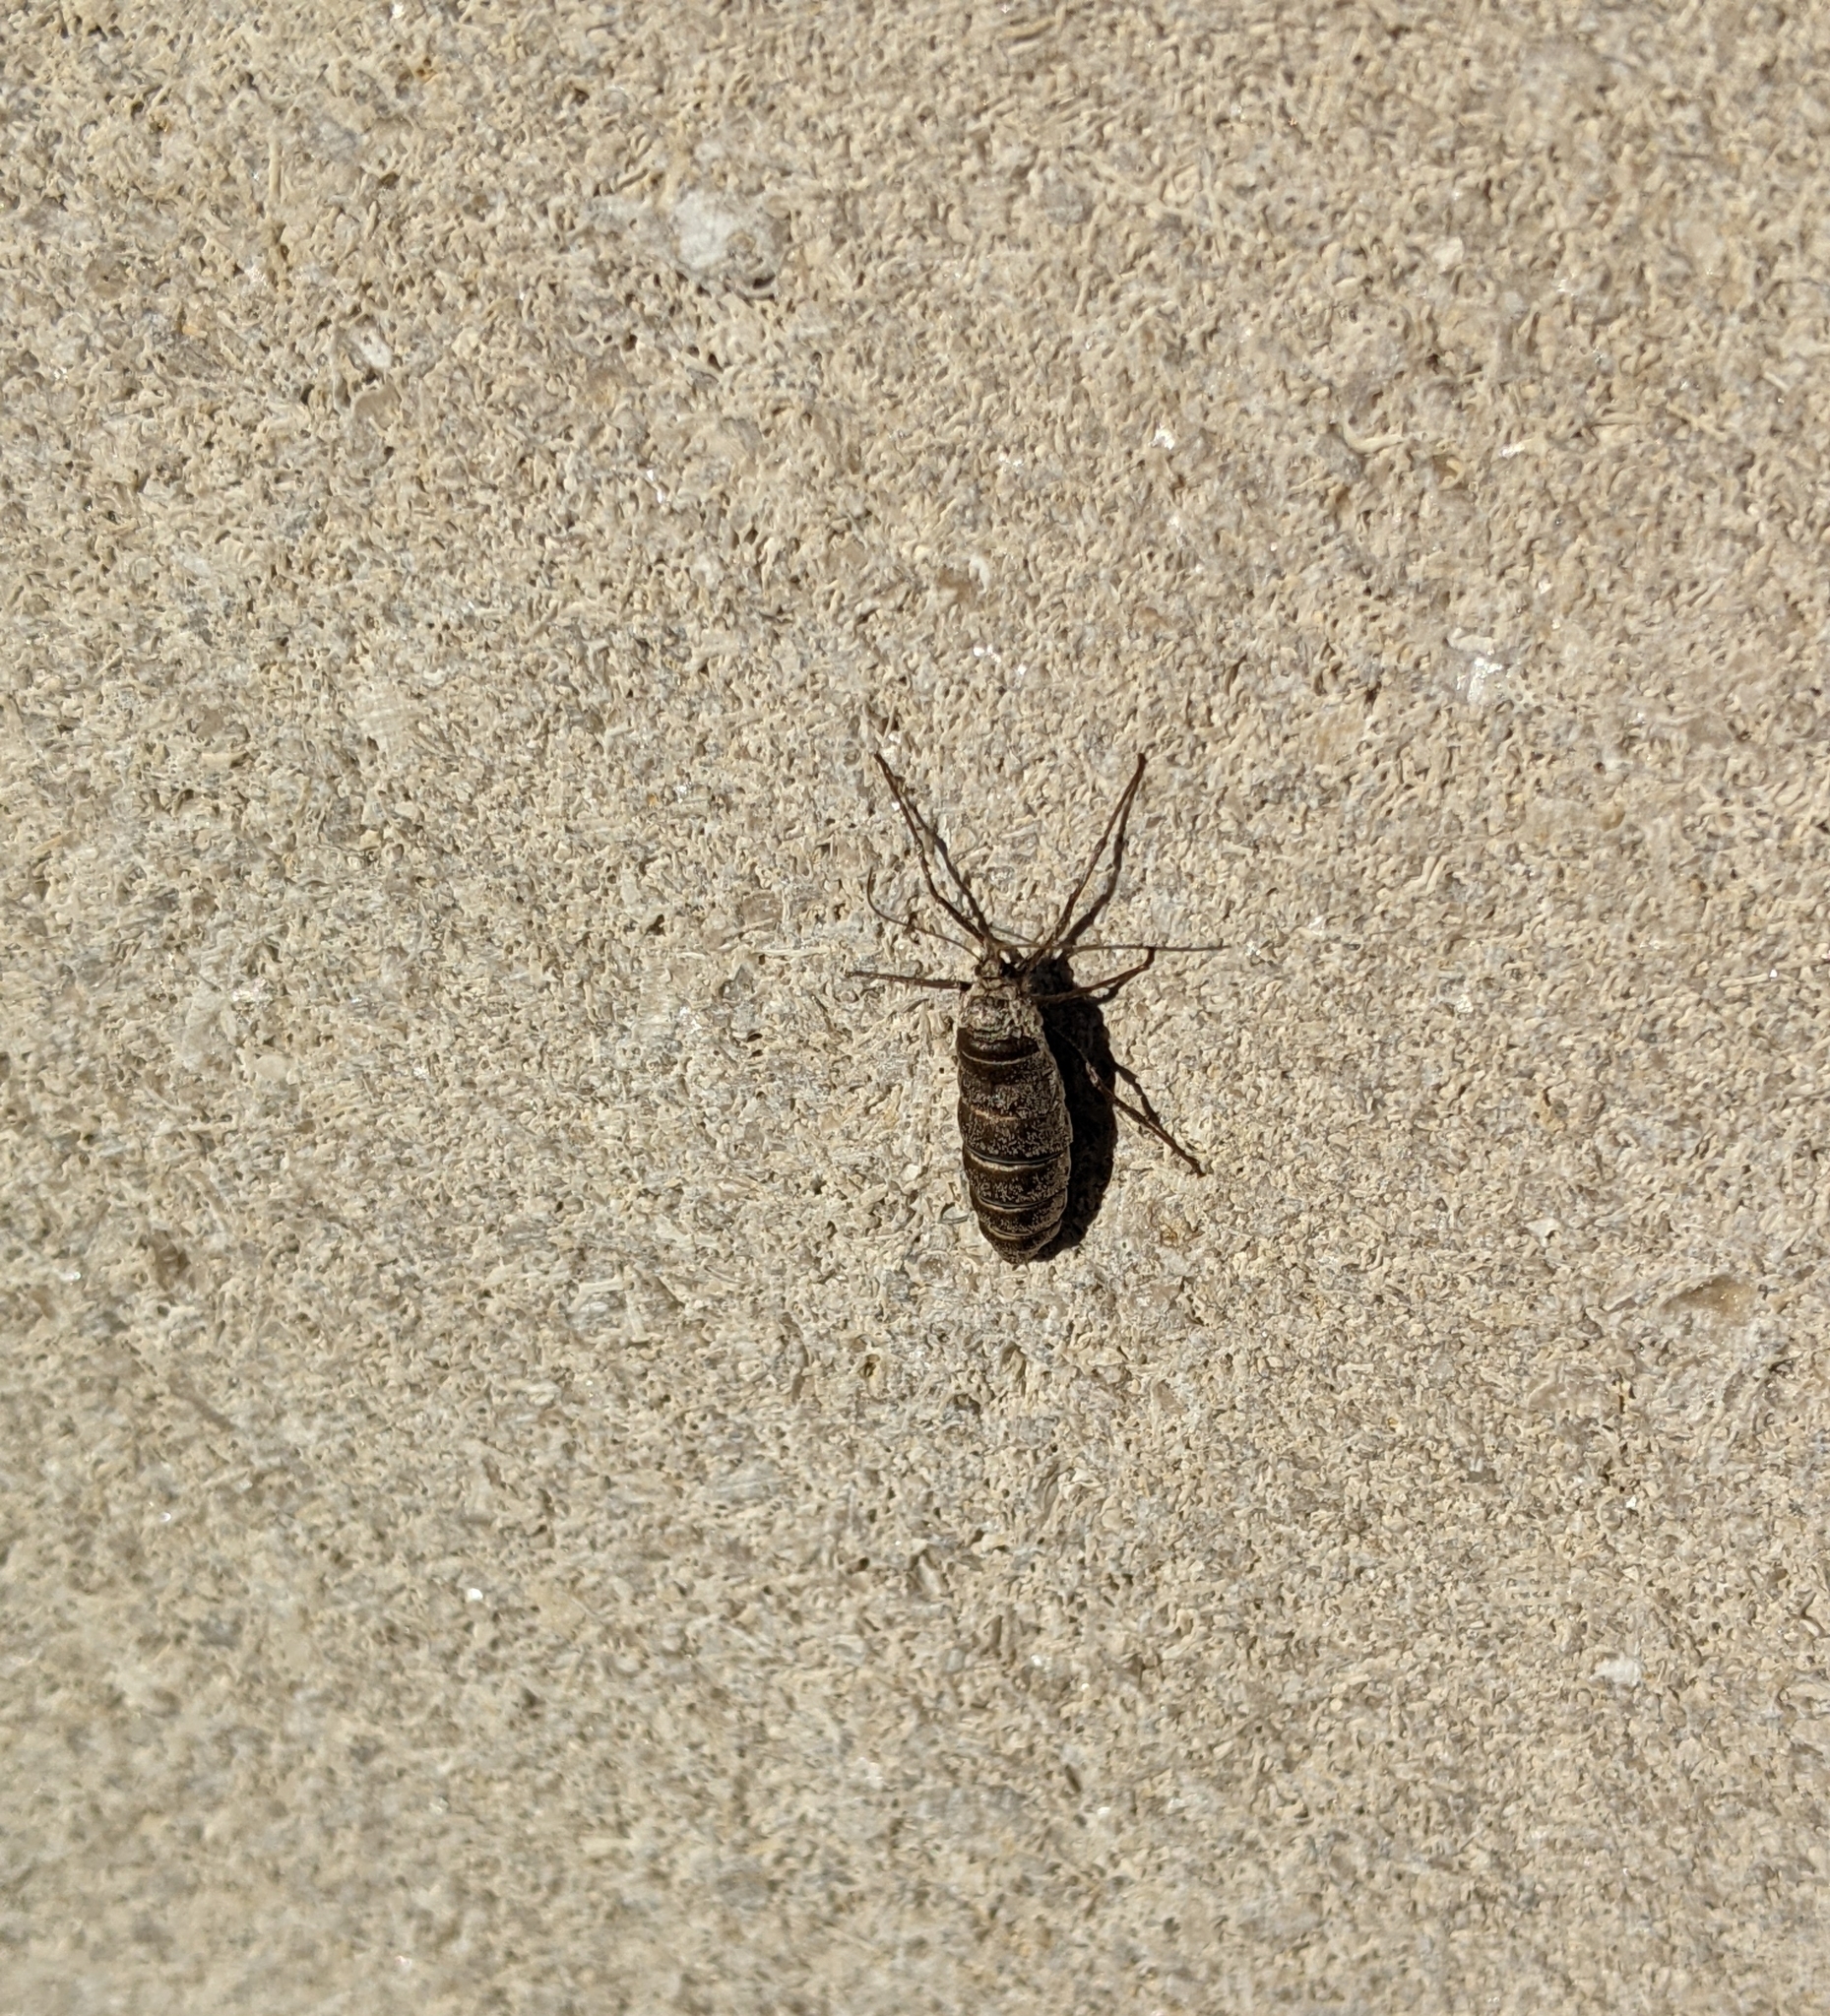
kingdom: Animalia
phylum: Arthropoda
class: Insecta
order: Lepidoptera
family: Geometridae
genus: Alsophila
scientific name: Alsophila pometaria
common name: Fall cankerworm
